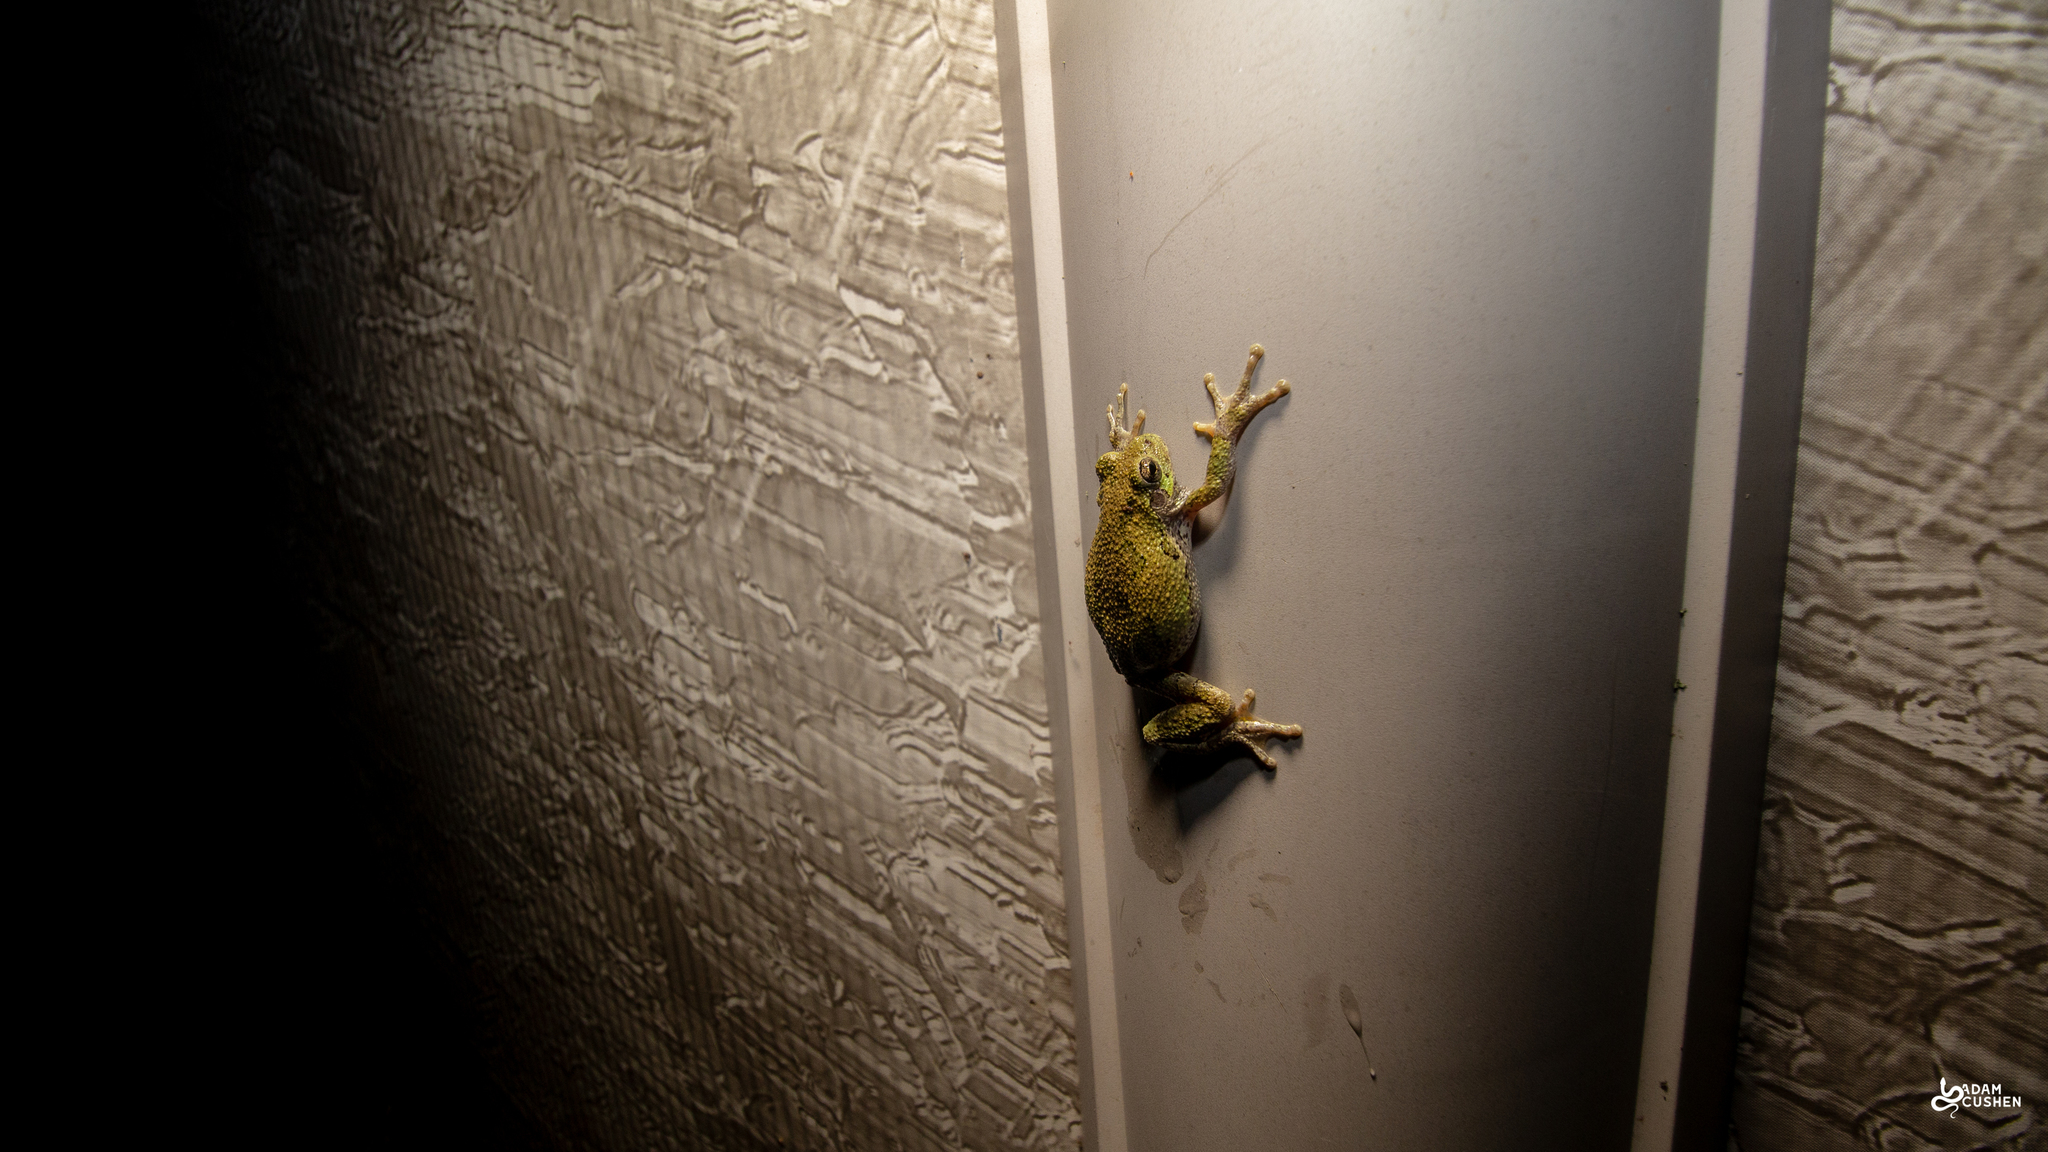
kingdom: Animalia
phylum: Chordata
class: Amphibia
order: Anura
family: Hylidae
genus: Dryophytes
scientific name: Dryophytes versicolor
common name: Gray treefrog
